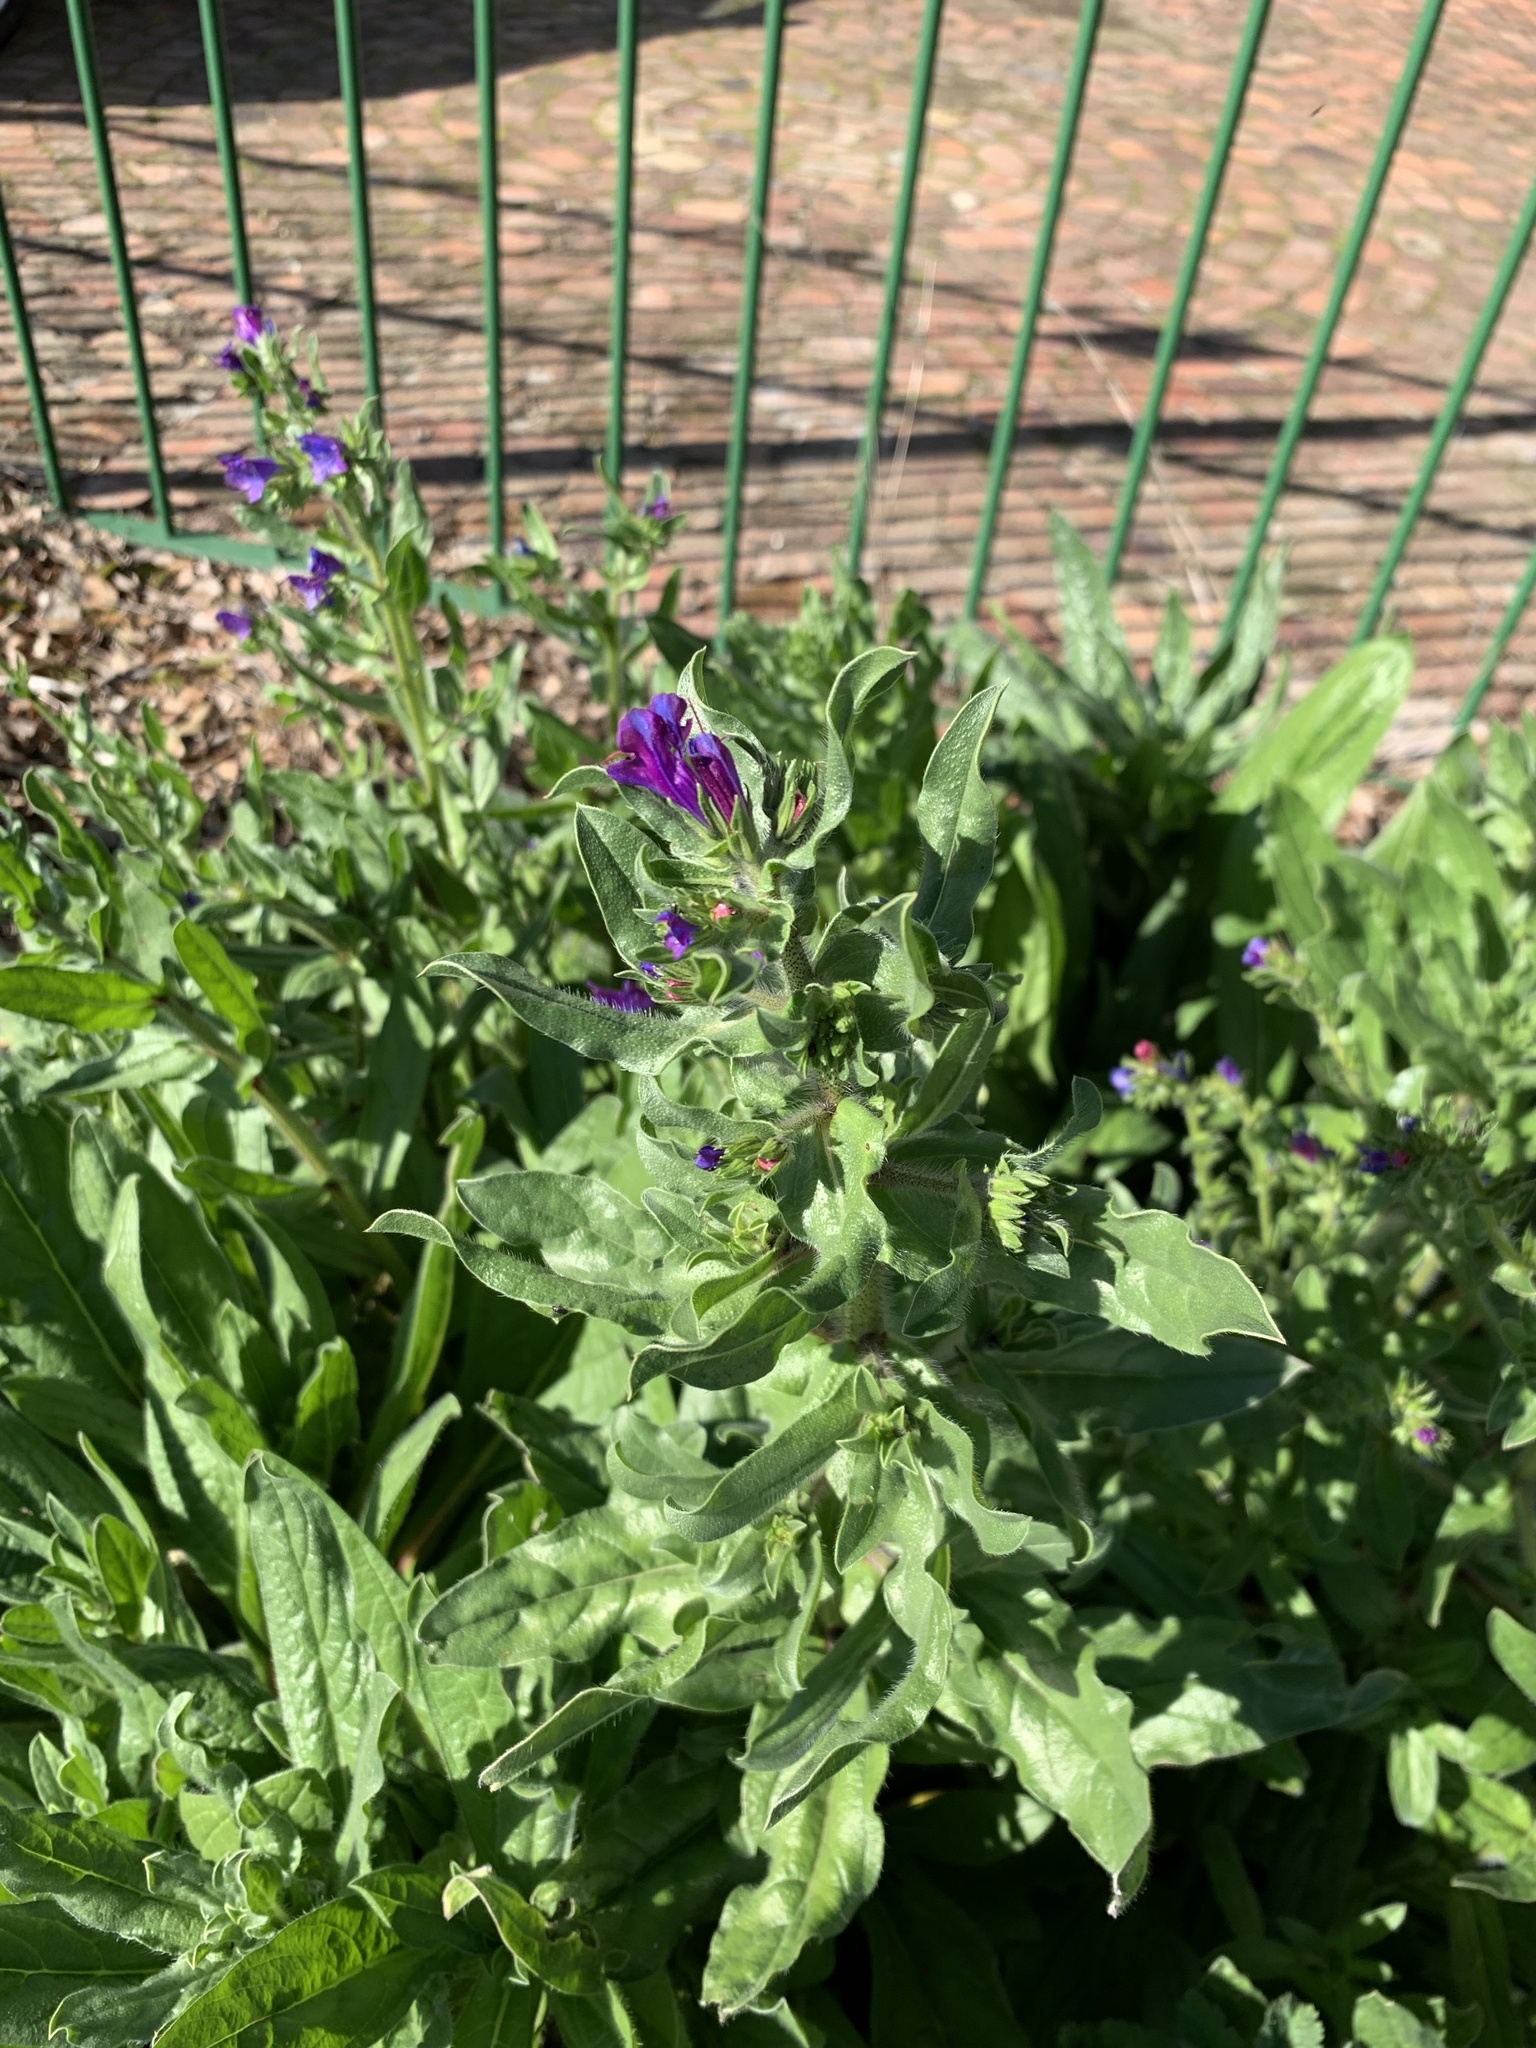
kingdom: Plantae
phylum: Tracheophyta
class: Magnoliopsida
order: Boraginales
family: Boraginaceae
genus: Echium
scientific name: Echium plantagineum
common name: Purple viper's-bugloss
